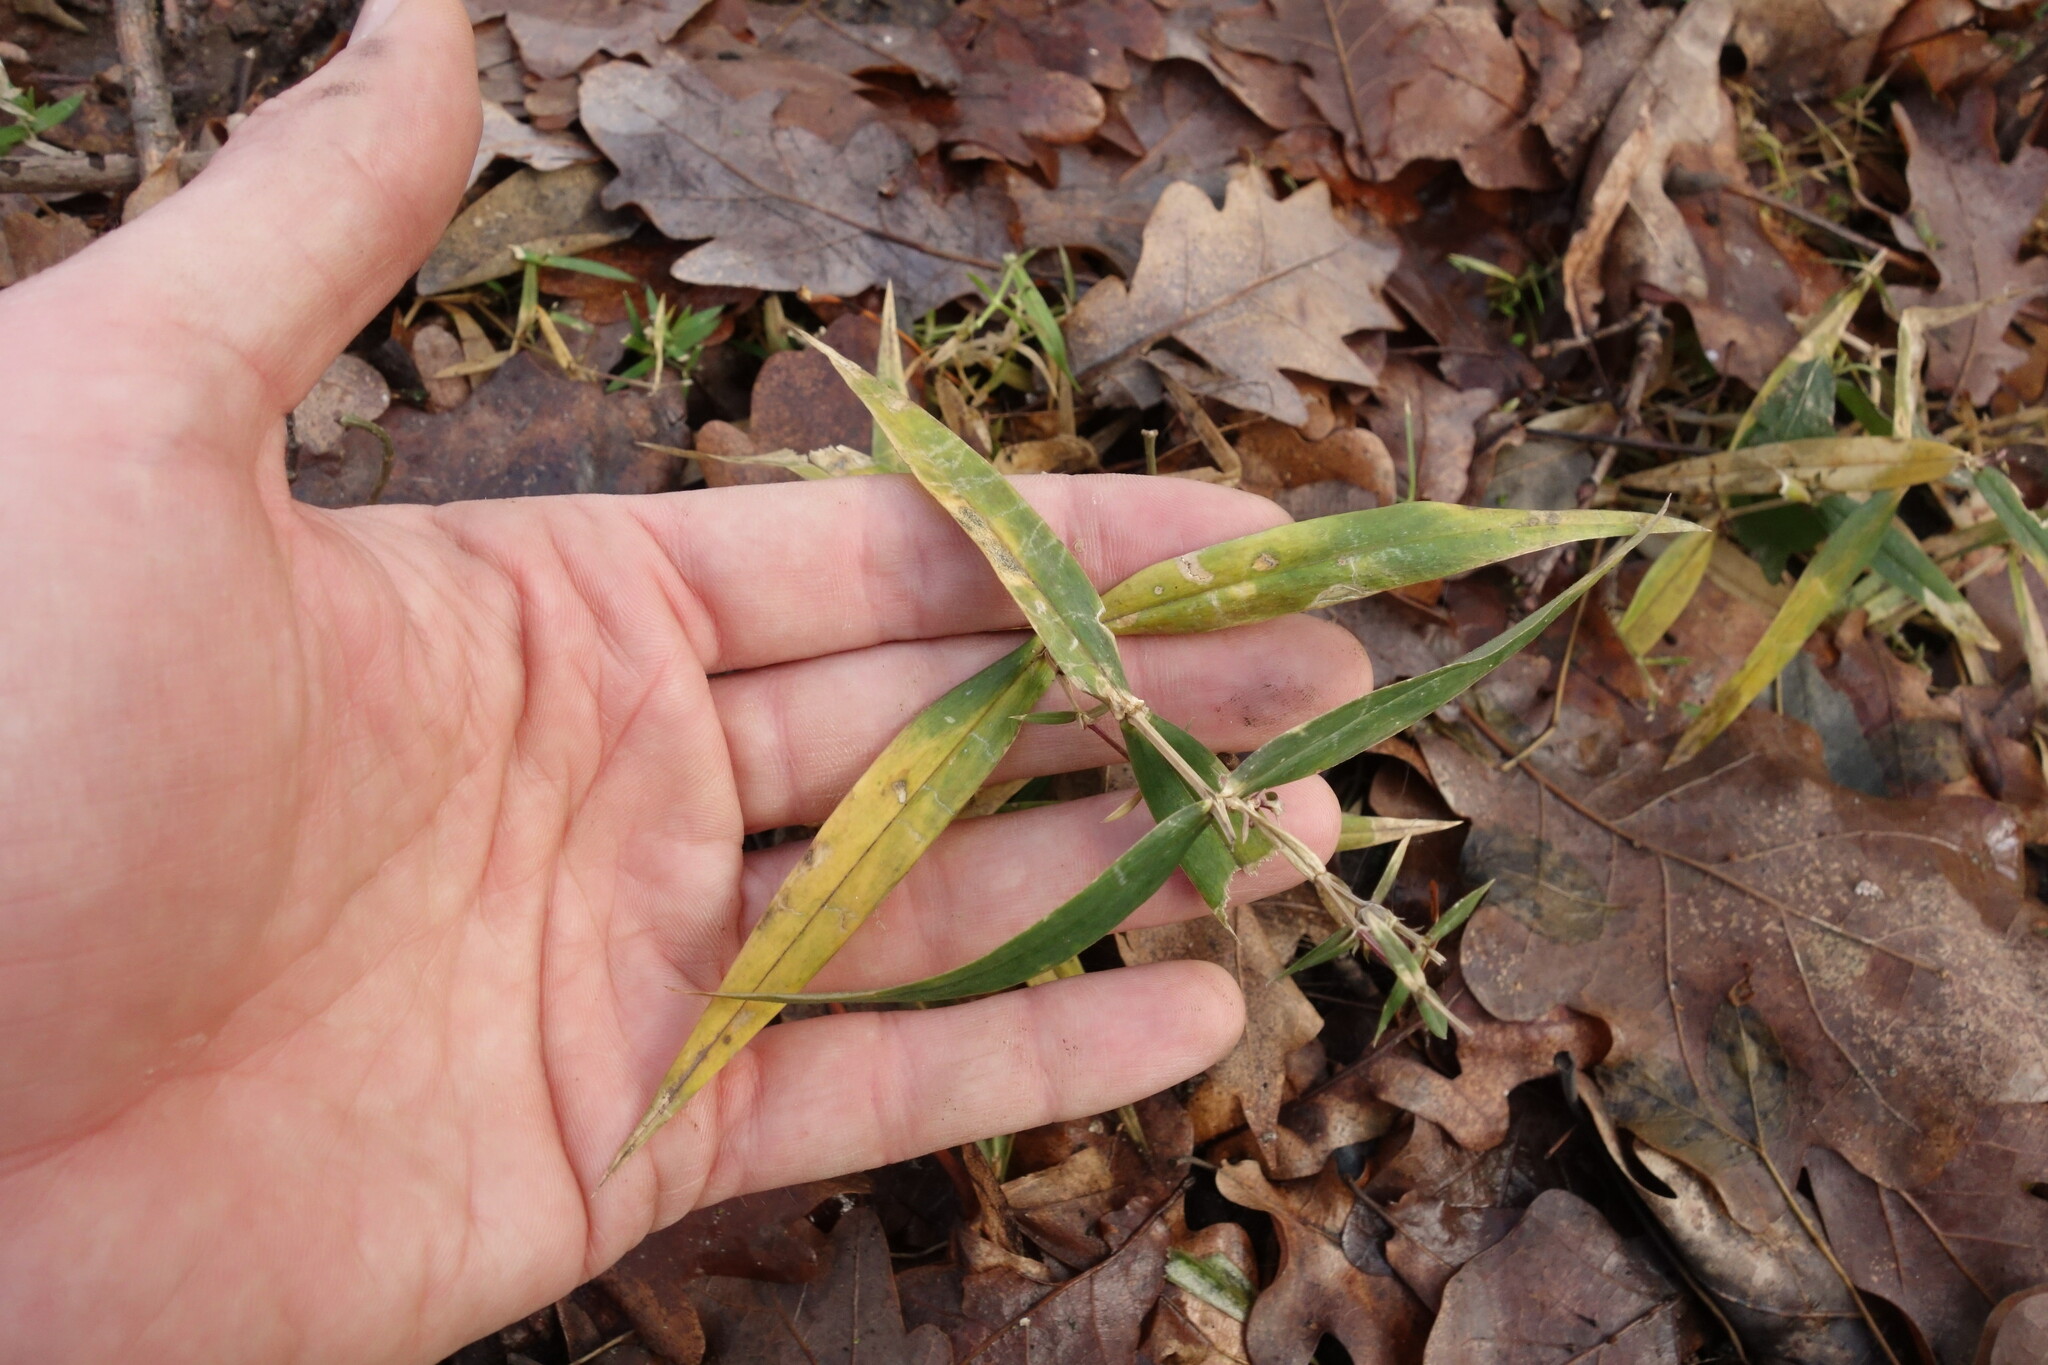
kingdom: Plantae
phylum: Tracheophyta
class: Magnoliopsida
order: Caryophyllales
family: Caryophyllaceae
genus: Rabelera
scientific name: Rabelera holostea
